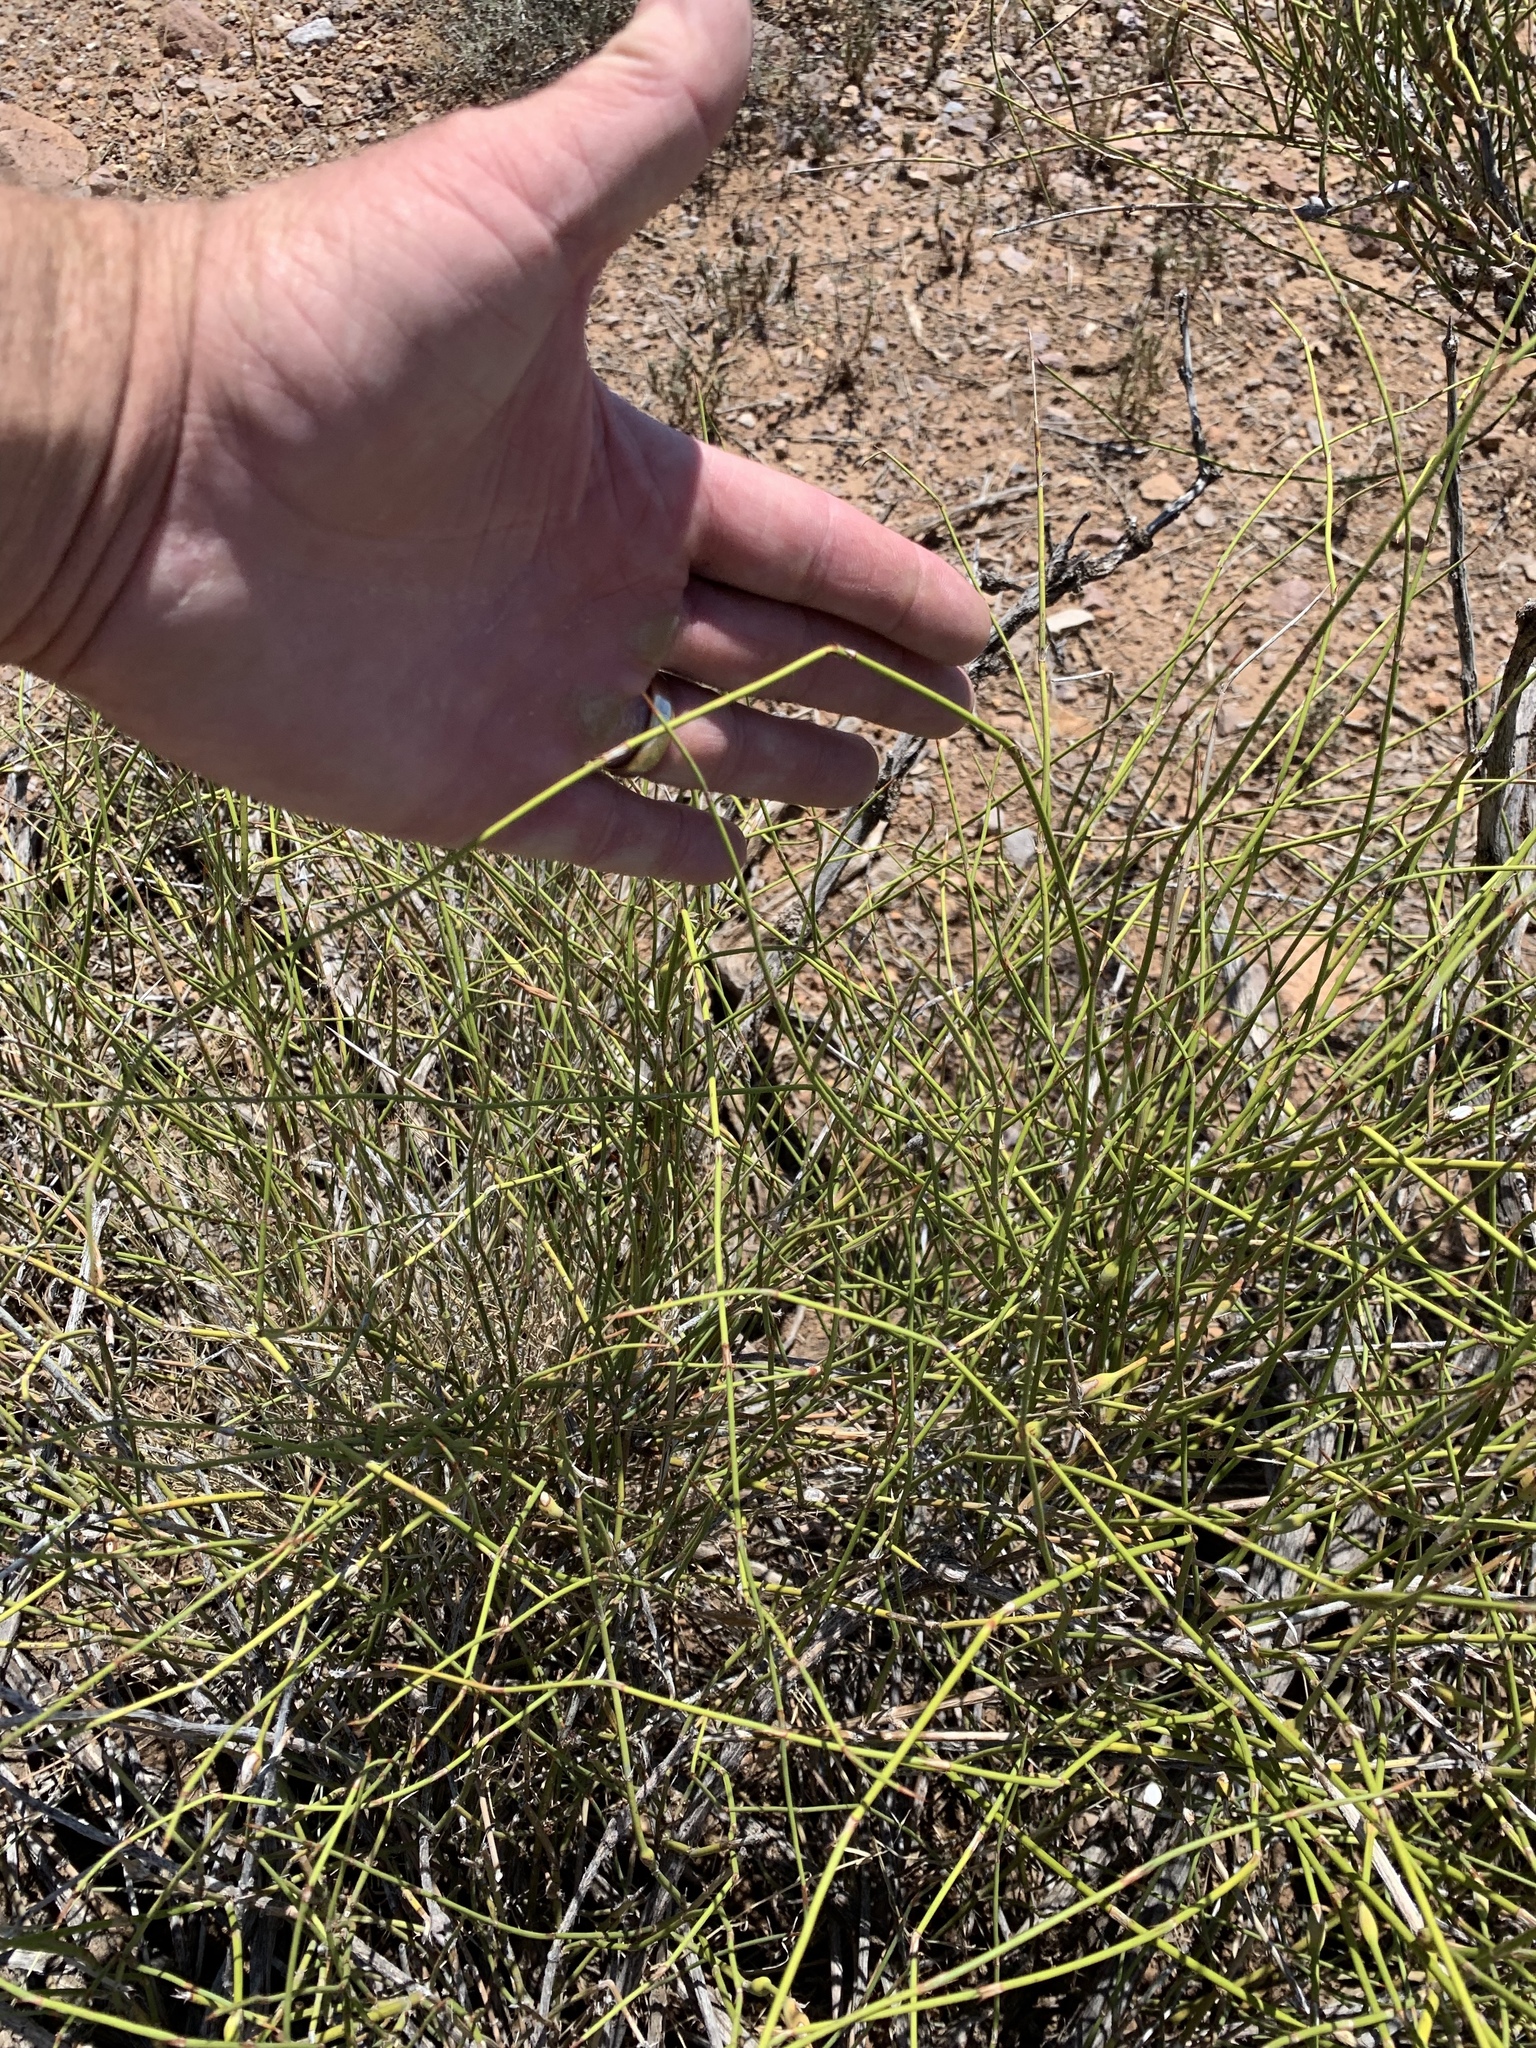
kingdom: Plantae
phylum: Tracheophyta
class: Gnetopsida
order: Ephedrales
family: Ephedraceae
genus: Ephedra
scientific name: Ephedra trifurca
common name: Mexican-tea
